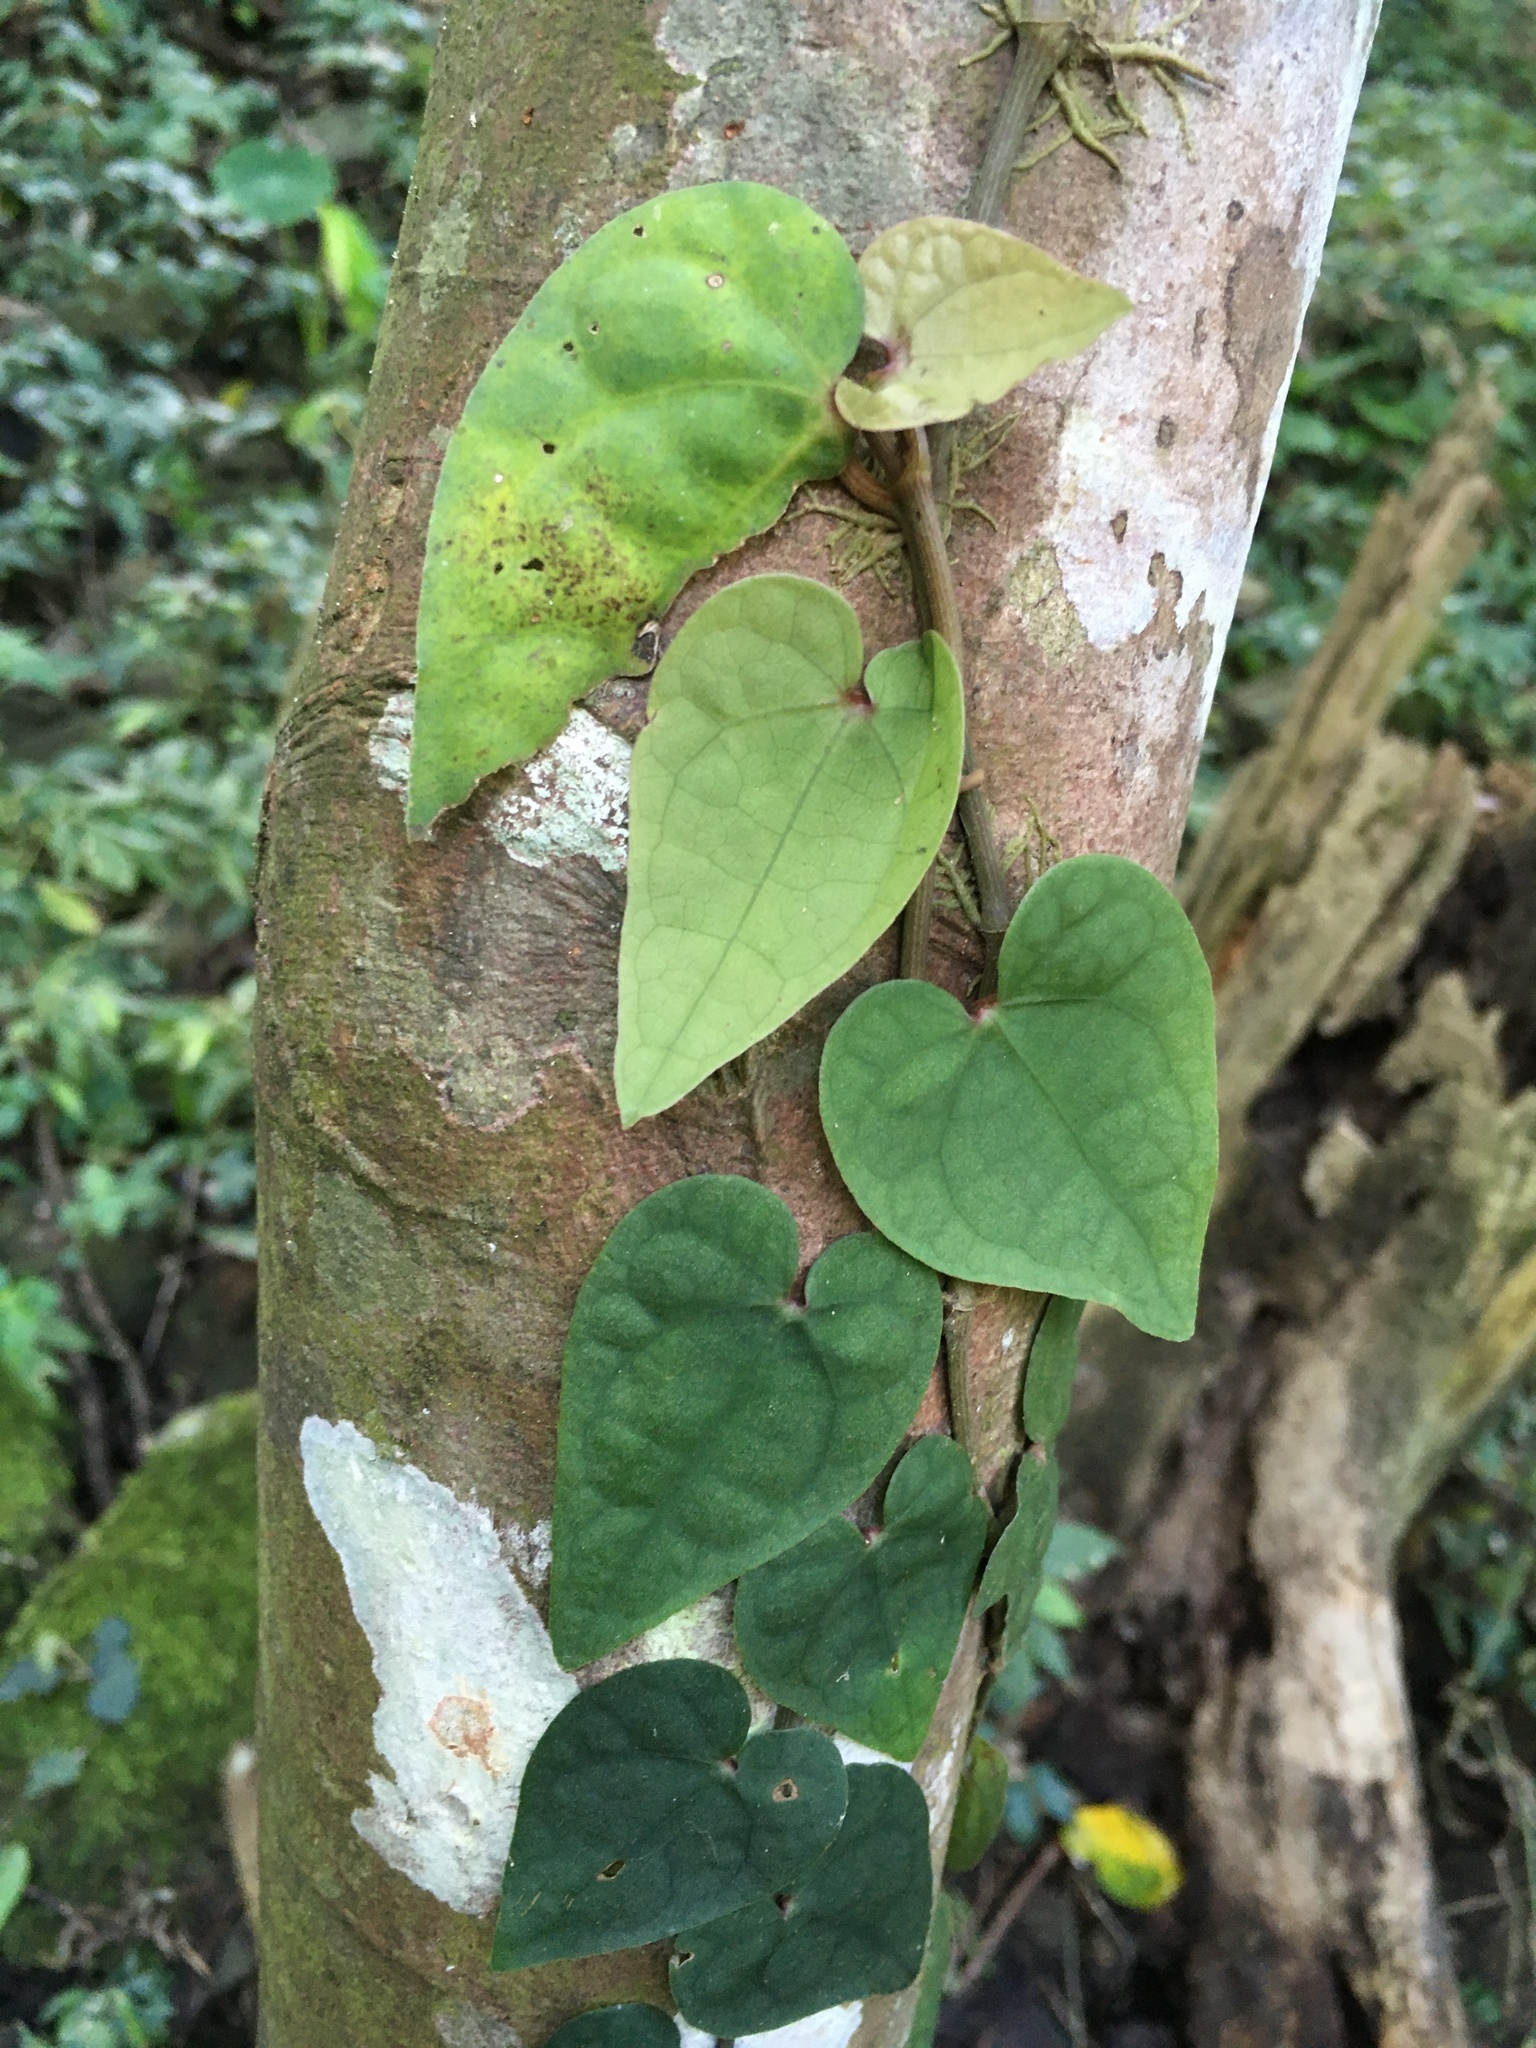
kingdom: Plantae
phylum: Tracheophyta
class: Magnoliopsida
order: Piperales
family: Piperaceae
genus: Piper
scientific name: Piper taiwanense
